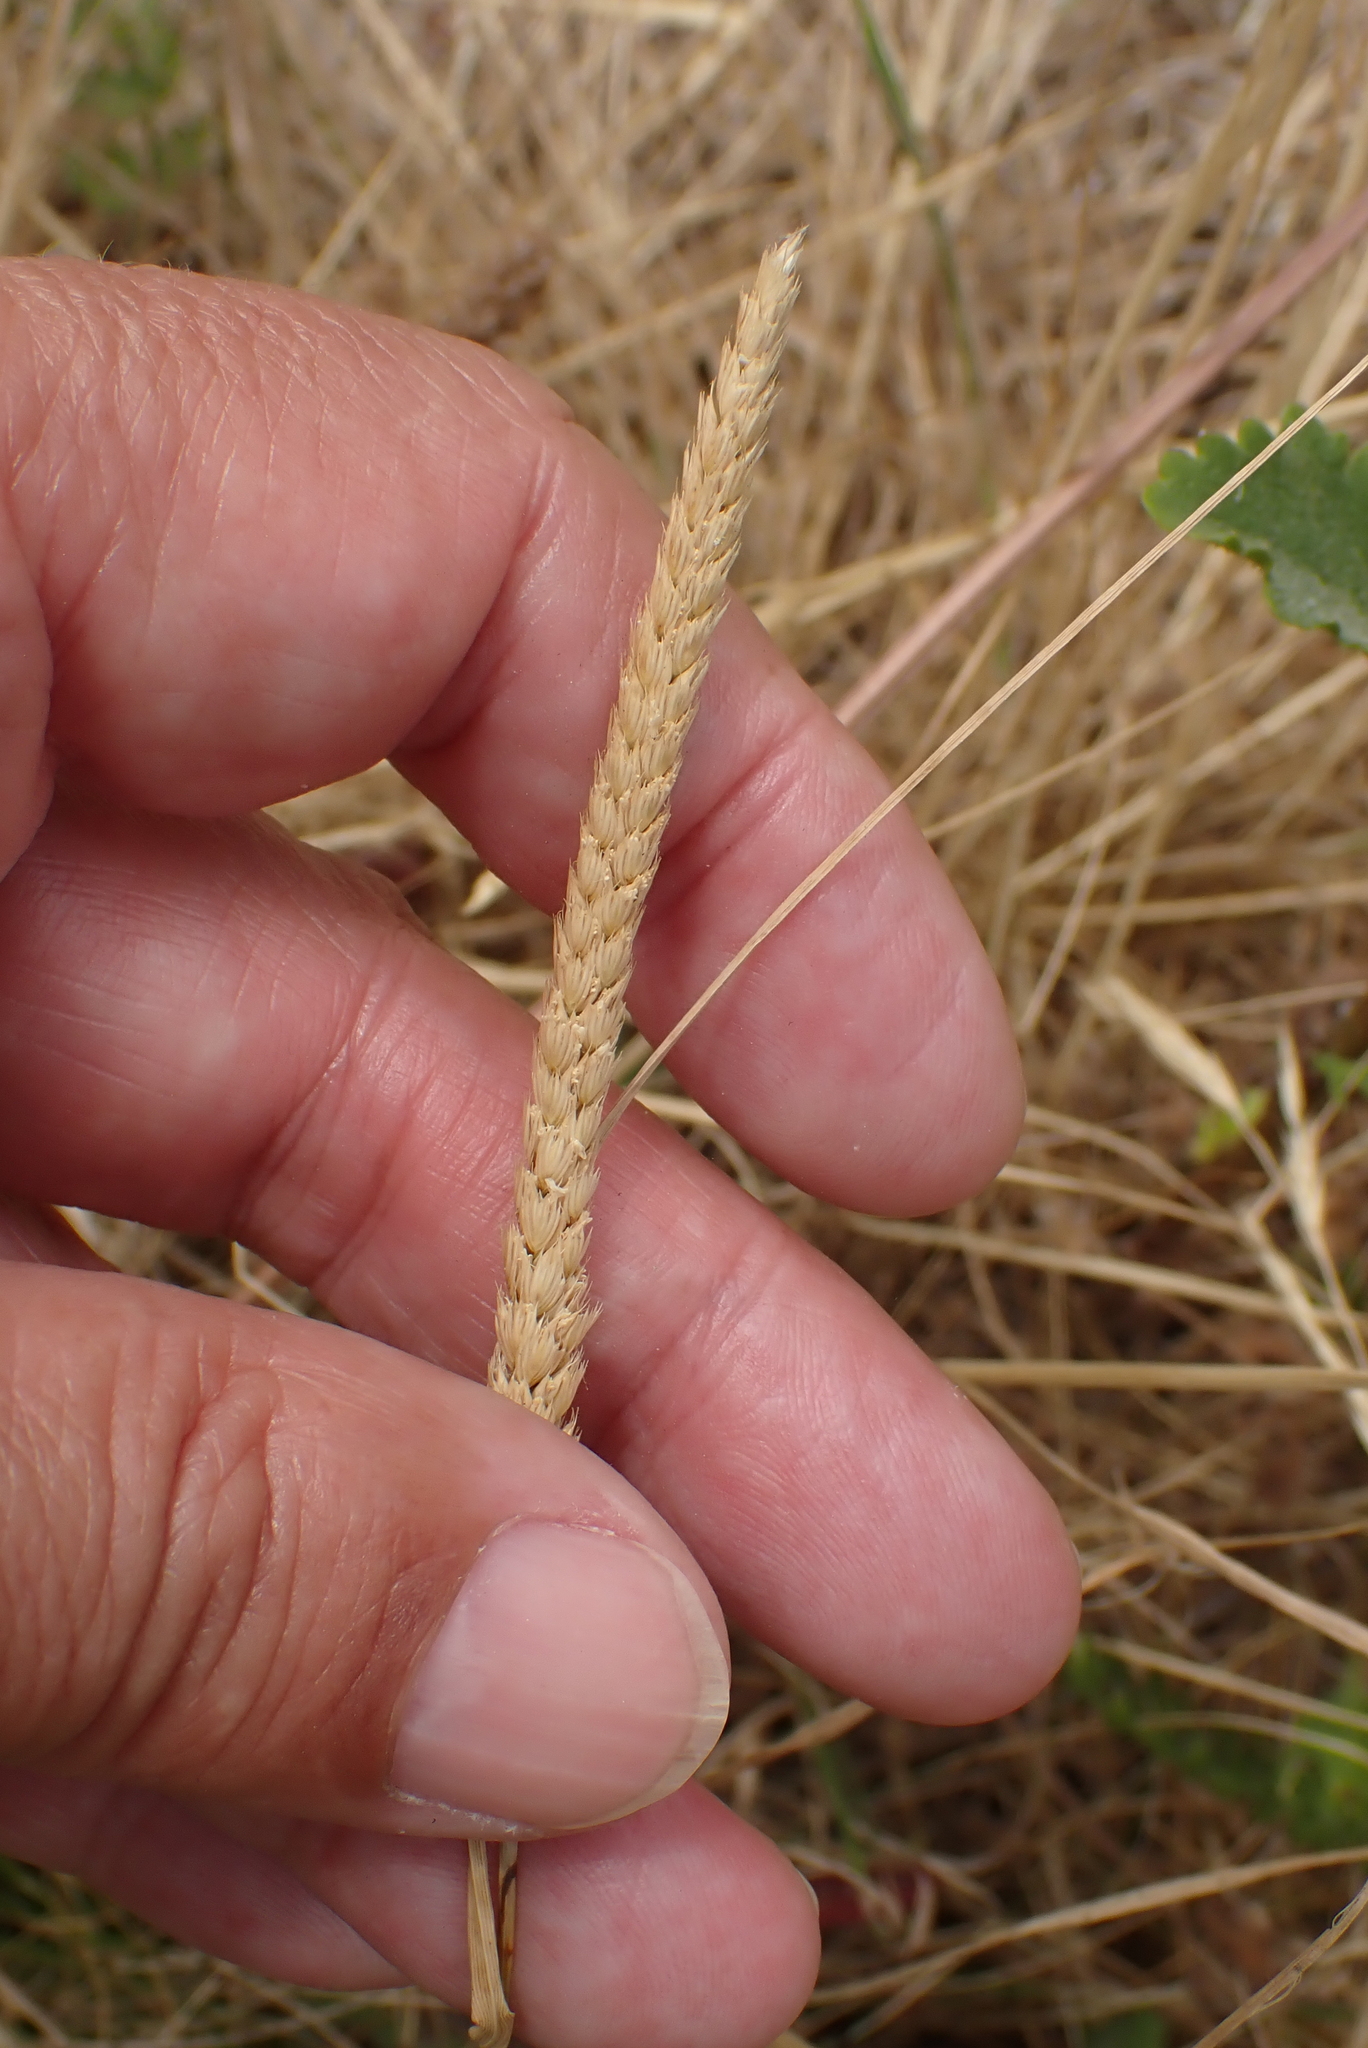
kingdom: Plantae
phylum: Tracheophyta
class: Liliopsida
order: Poales
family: Poaceae
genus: Cynosurus
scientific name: Cynosurus cristatus
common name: Crested dog's-tail
